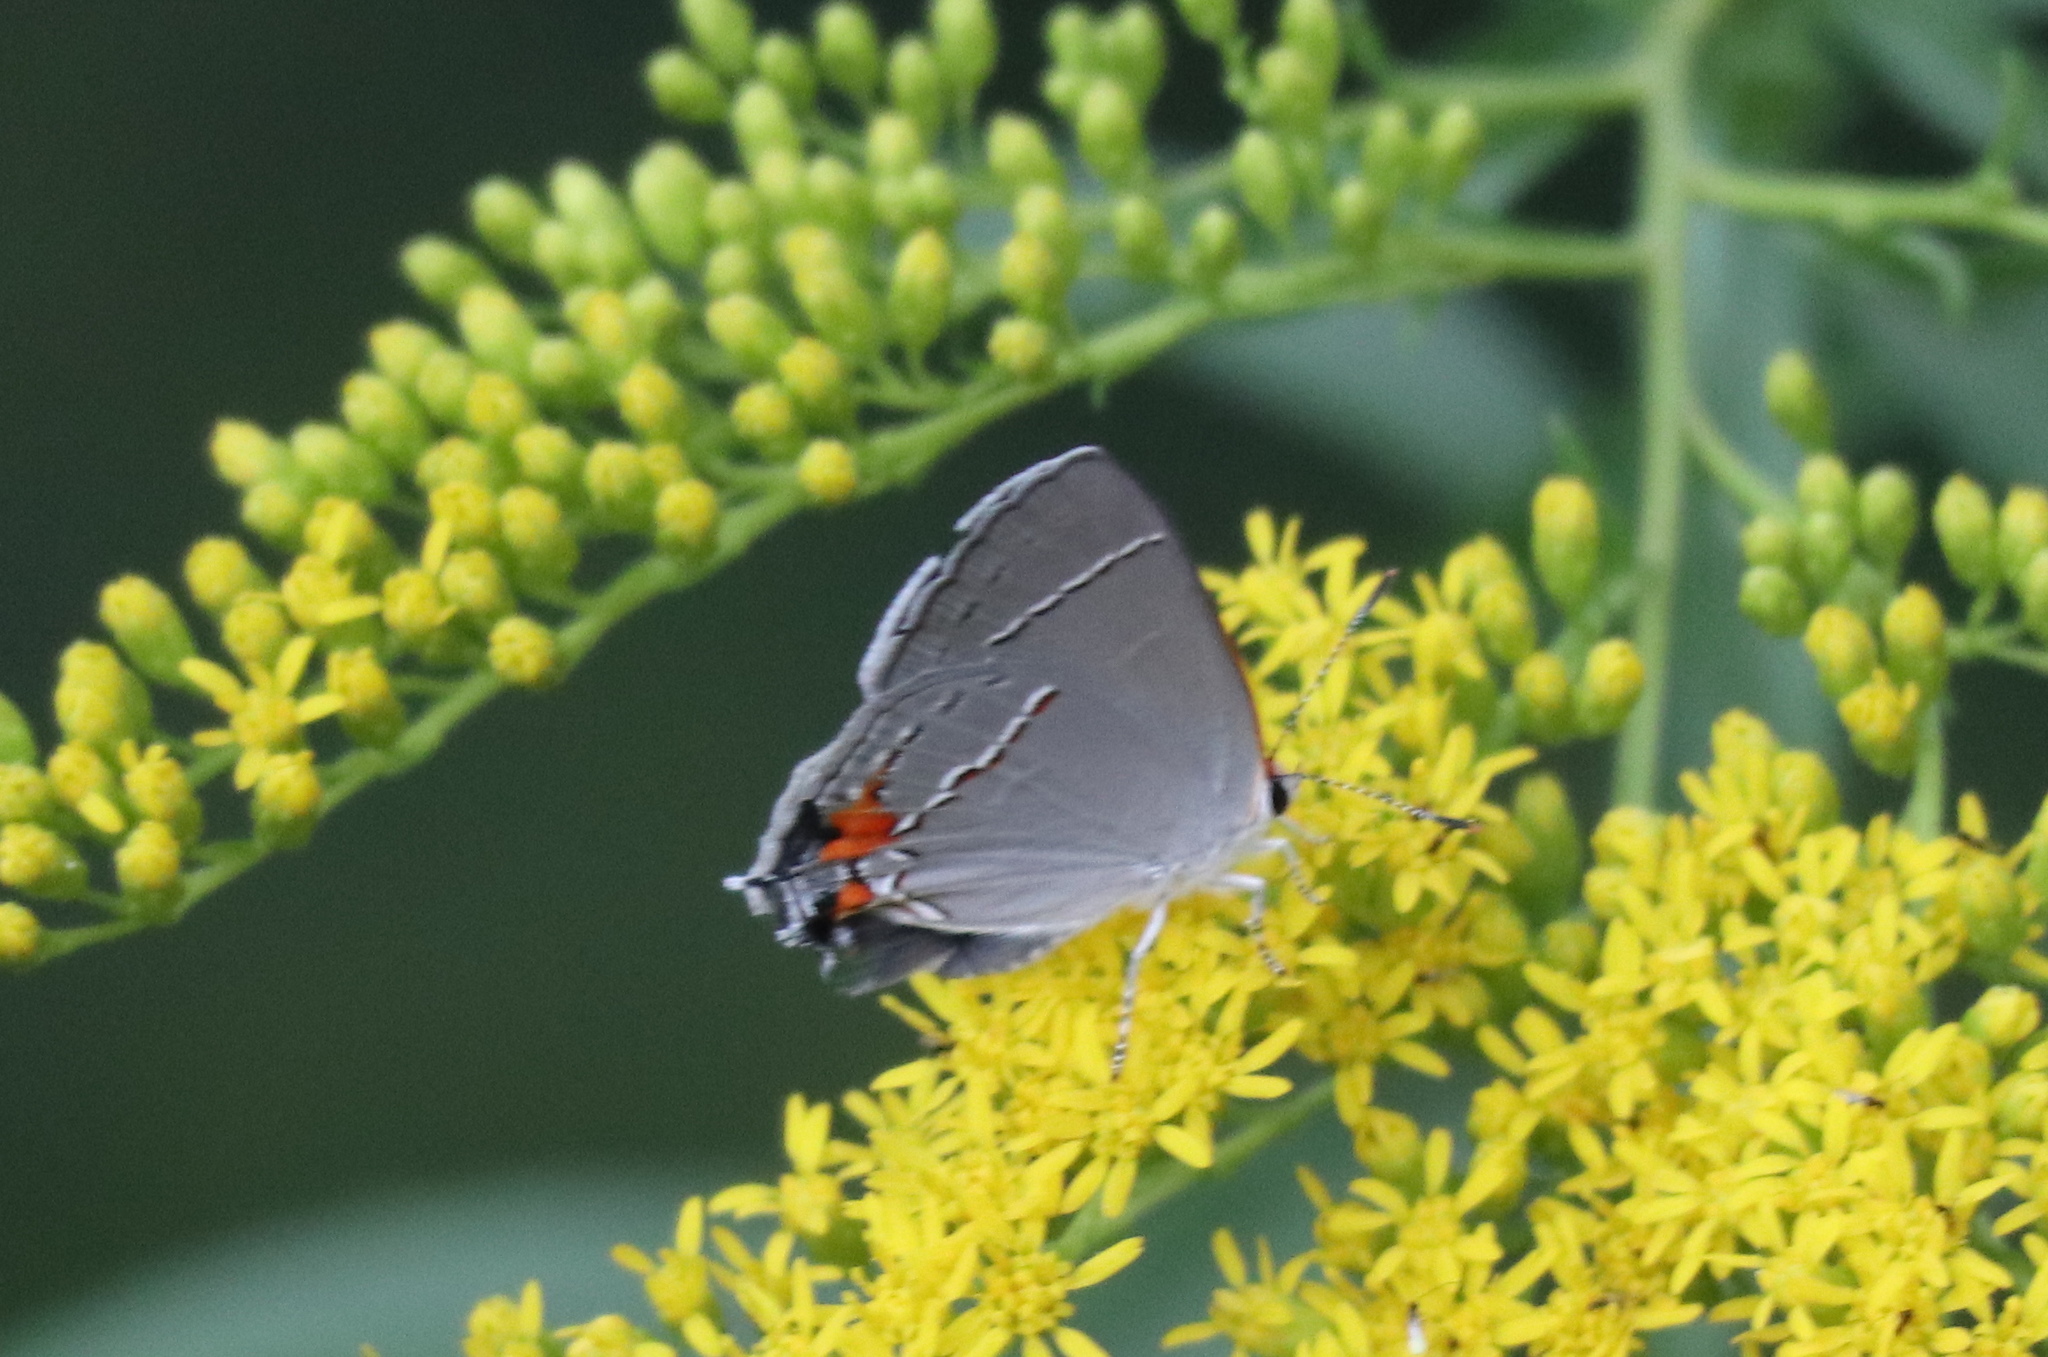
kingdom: Animalia
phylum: Arthropoda
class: Insecta
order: Lepidoptera
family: Lycaenidae
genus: Strymon
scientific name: Strymon melinus
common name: Gray hairstreak
